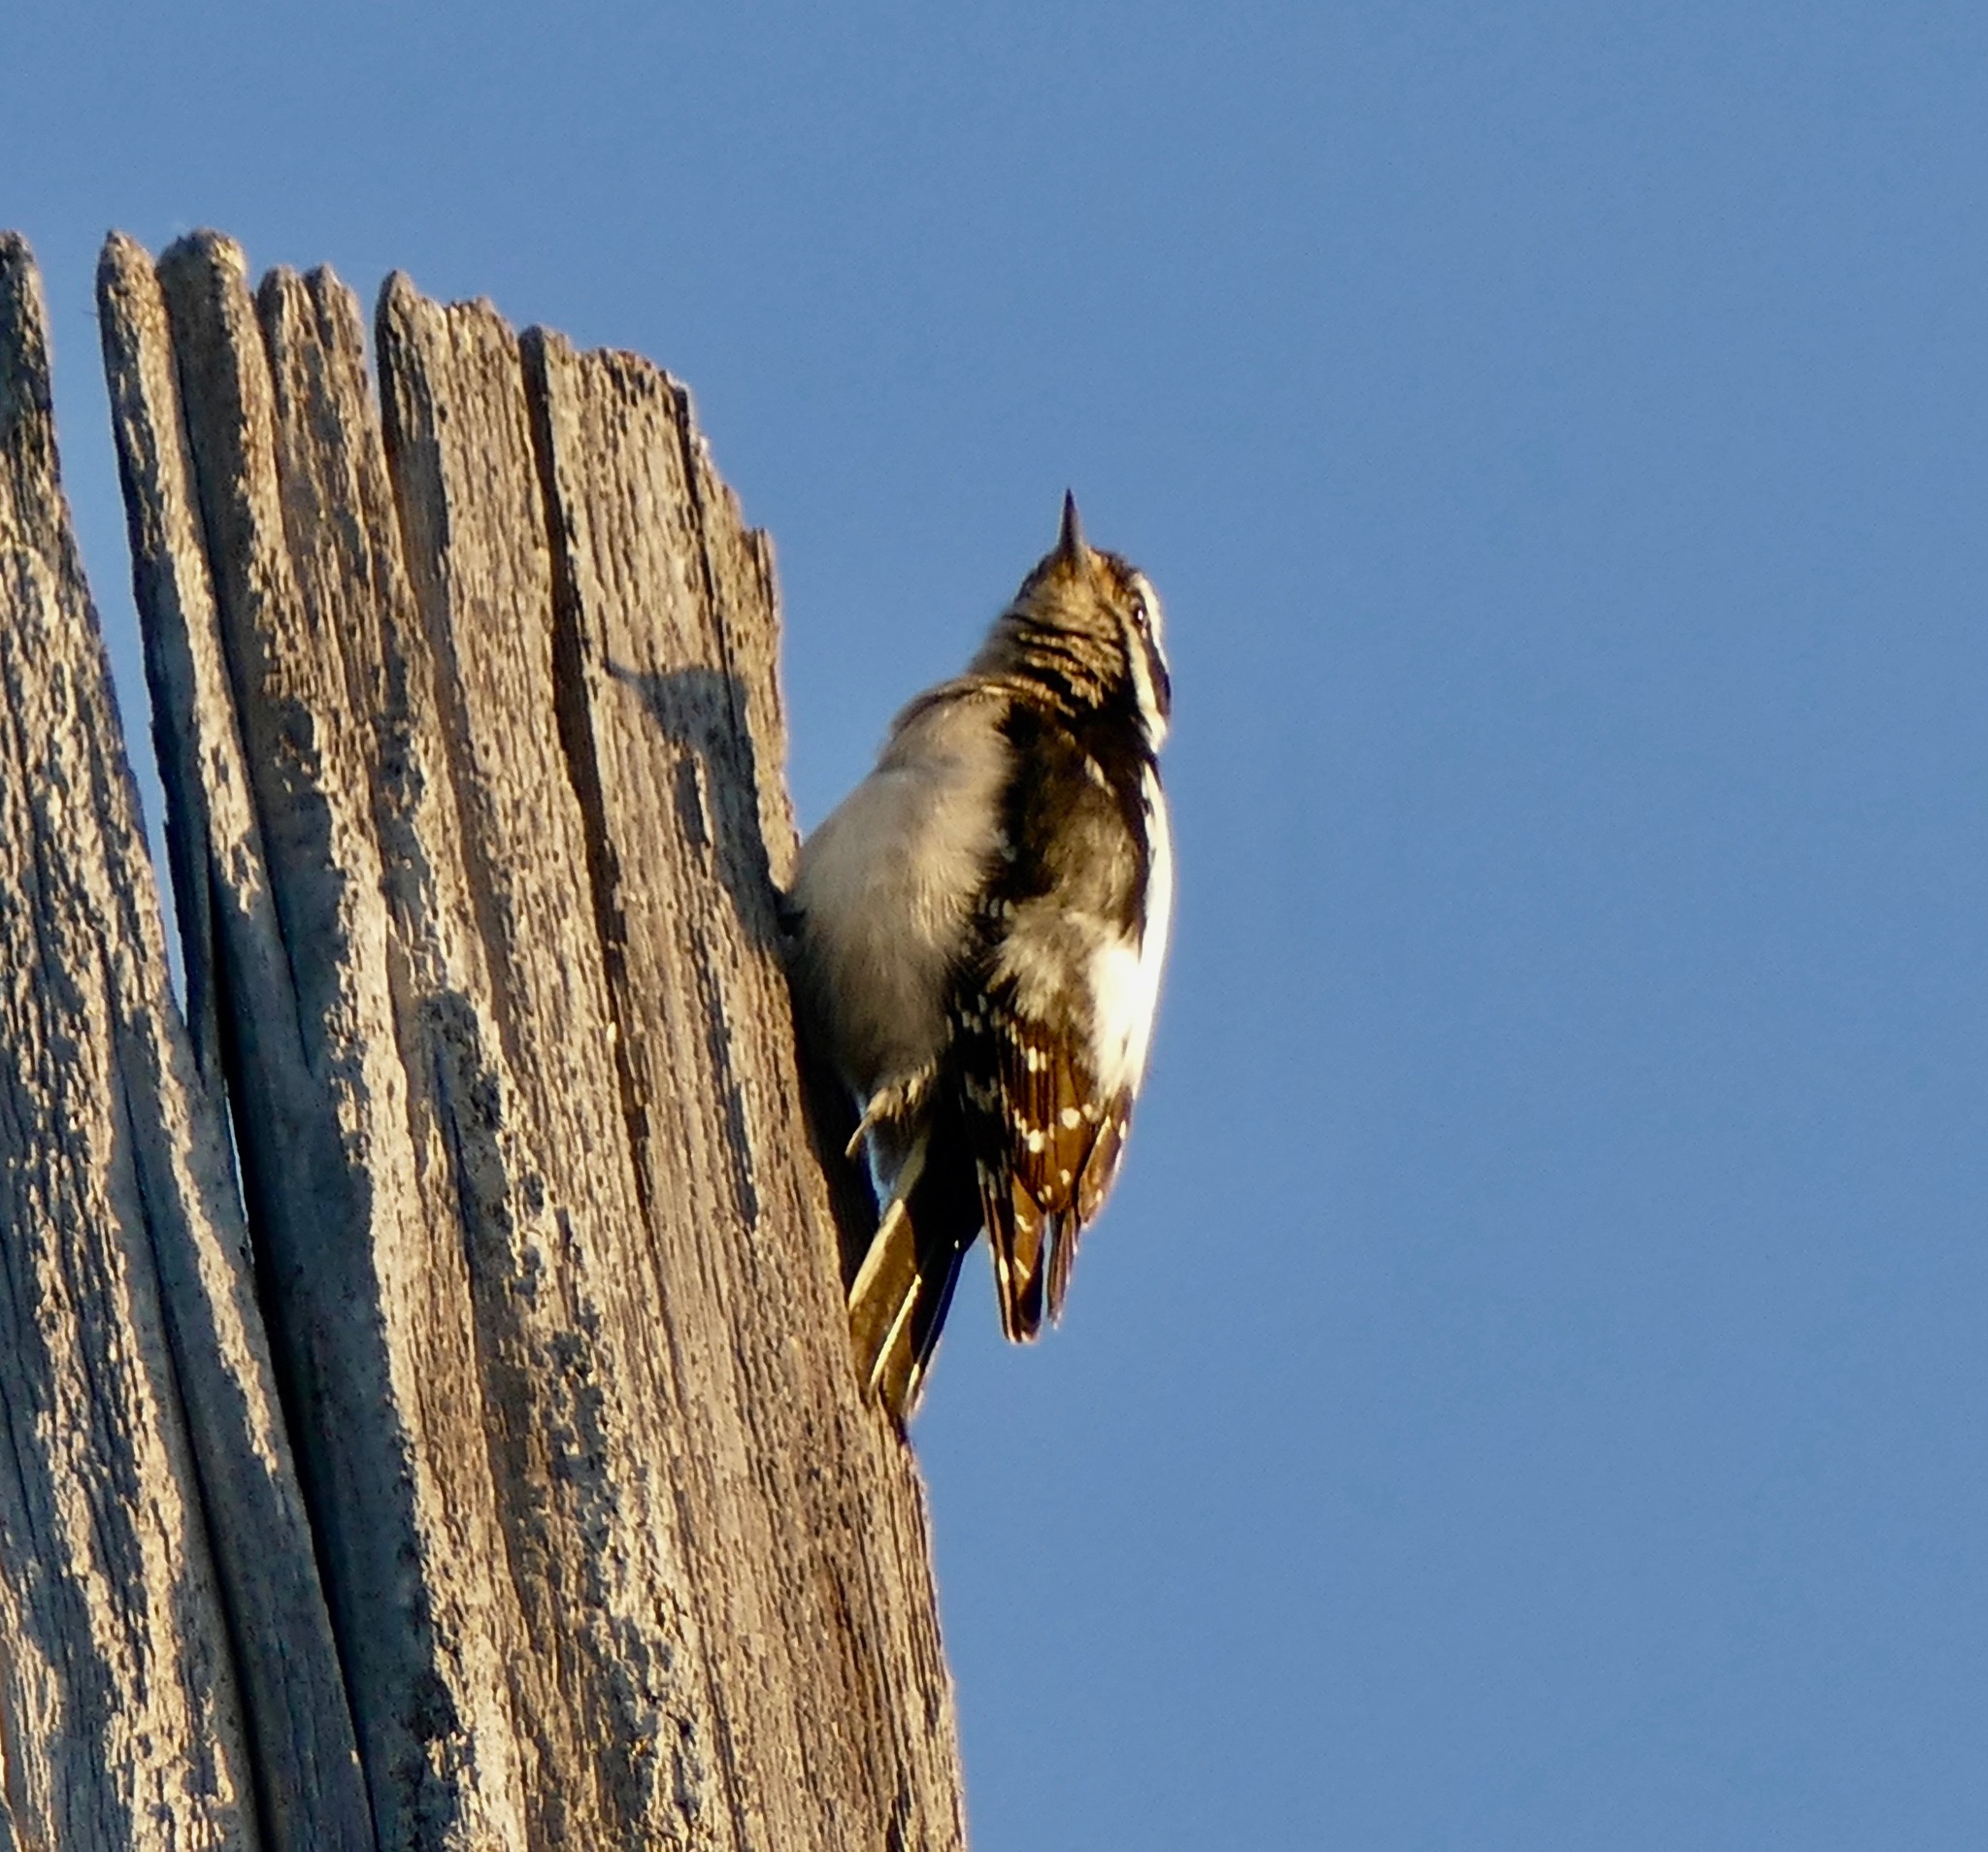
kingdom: Animalia
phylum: Chordata
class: Aves
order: Piciformes
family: Picidae
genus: Leuconotopicus
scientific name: Leuconotopicus villosus
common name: Hairy woodpecker
